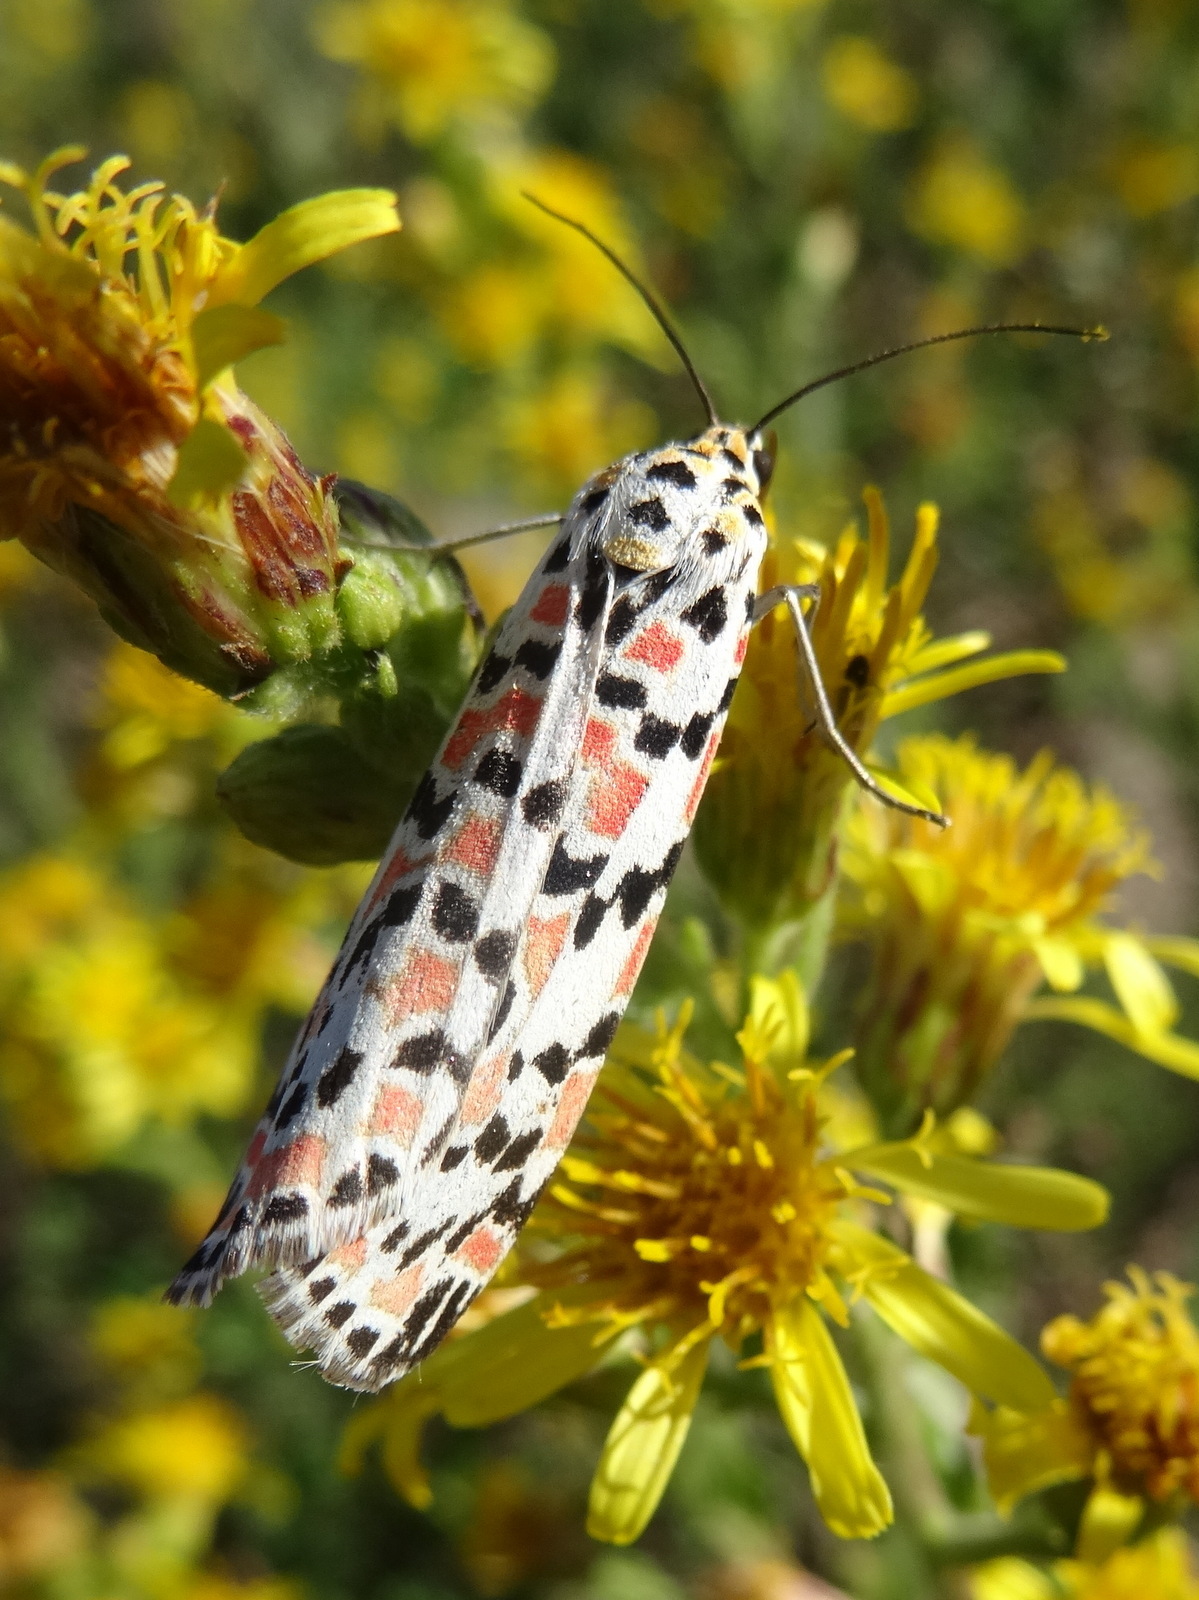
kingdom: Animalia
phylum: Arthropoda
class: Insecta
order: Lepidoptera
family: Erebidae
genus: Utetheisa
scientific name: Utetheisa pulchella
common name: Crimson speckled
